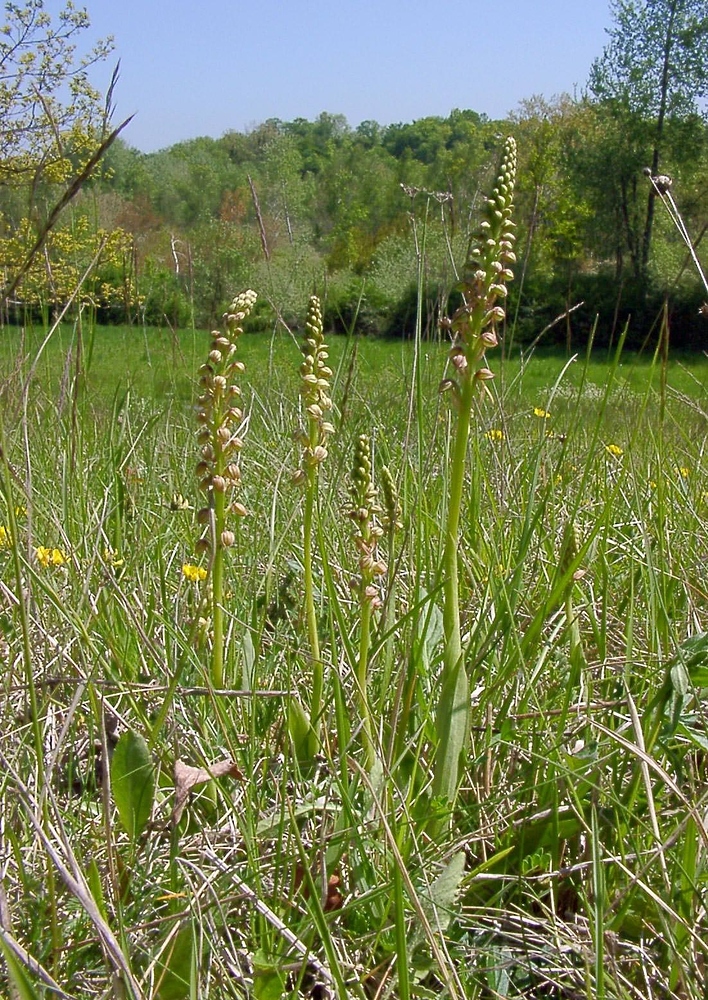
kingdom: Plantae
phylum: Tracheophyta
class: Liliopsida
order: Asparagales
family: Orchidaceae
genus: Orchis
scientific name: Orchis anthropophora
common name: Man orchid
